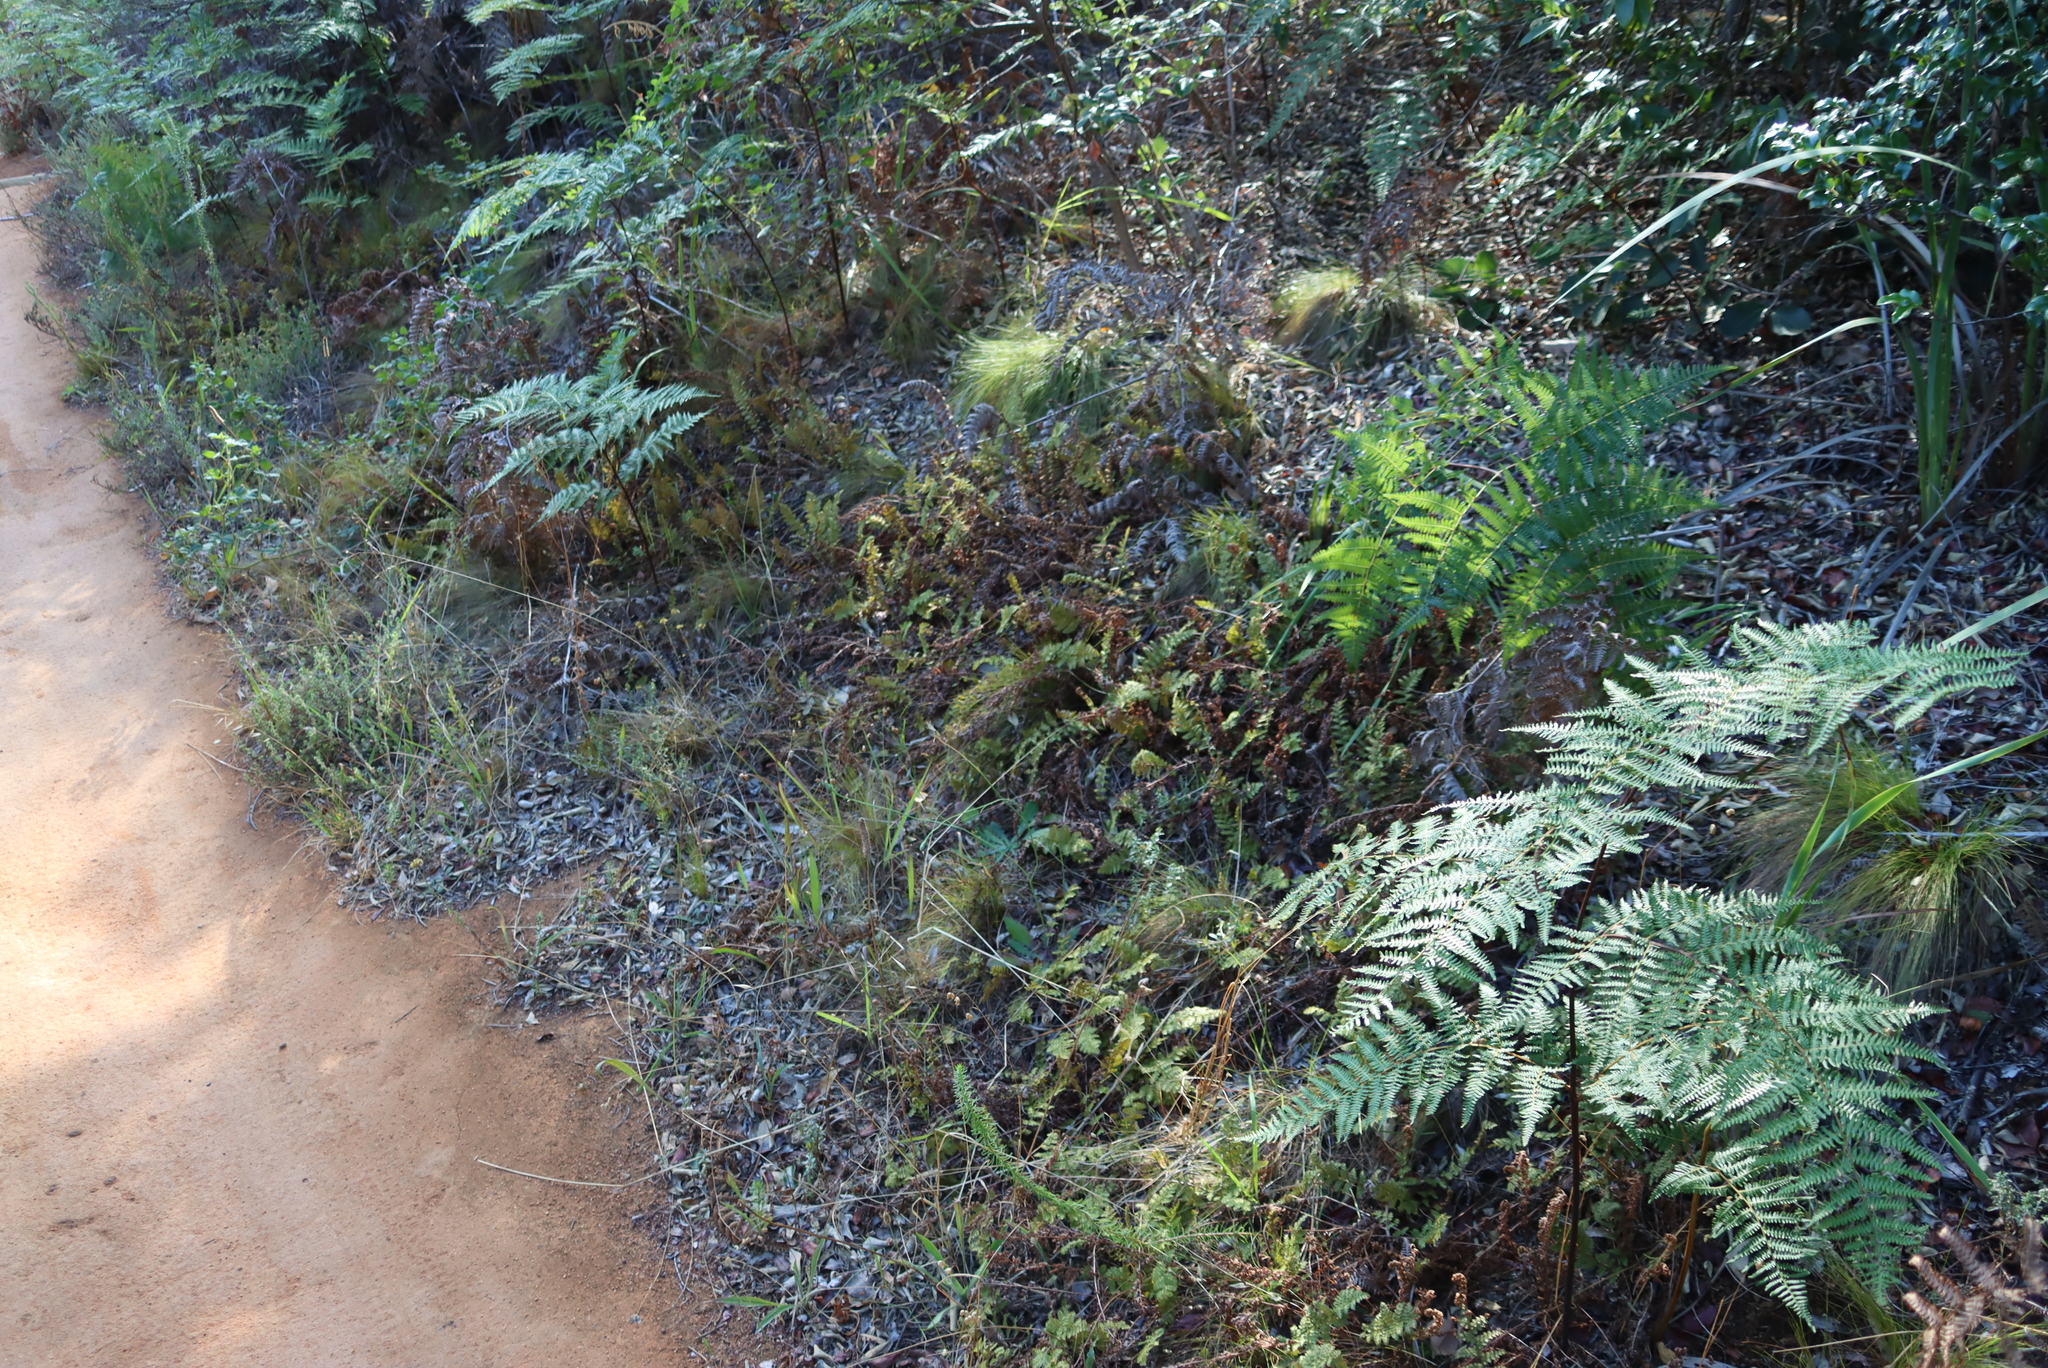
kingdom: Plantae
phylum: Tracheophyta
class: Polypodiopsida
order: Polypodiales
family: Dennstaedtiaceae
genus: Pteridium
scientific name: Pteridium aquilinum
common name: Bracken
